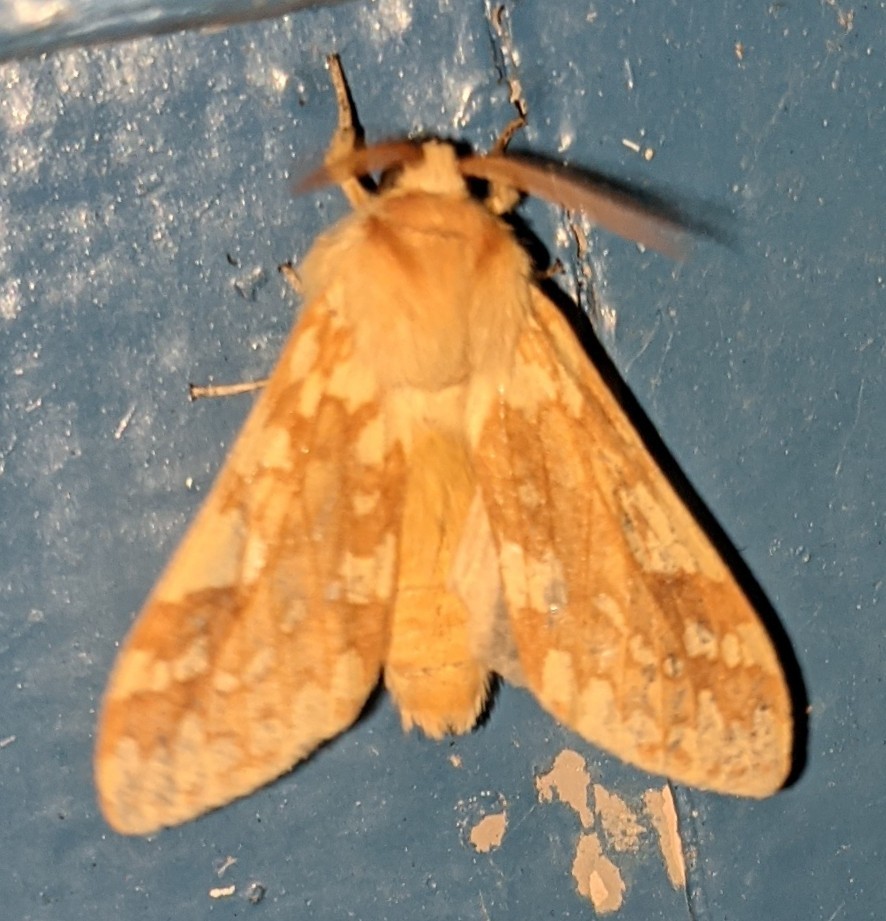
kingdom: Animalia
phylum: Arthropoda
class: Insecta
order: Lepidoptera
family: Erebidae
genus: Lophocampa
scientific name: Lophocampa maculata
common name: Spotted tussock moth
